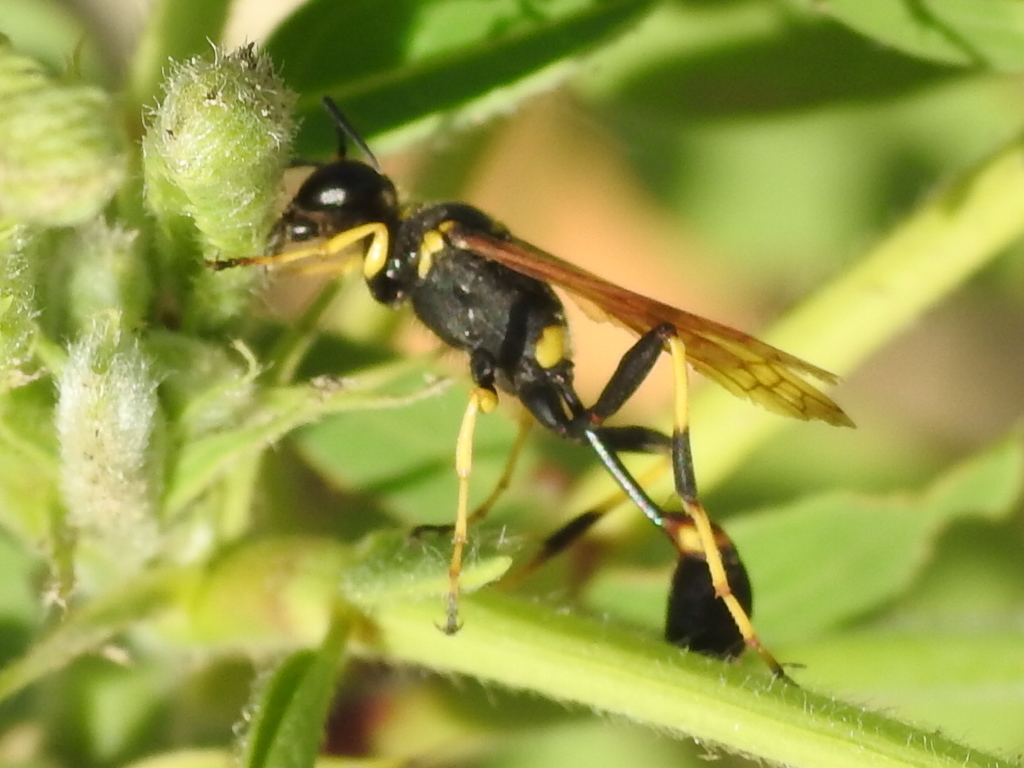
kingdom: Animalia
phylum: Arthropoda
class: Insecta
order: Hymenoptera
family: Sphecidae
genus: Sceliphron
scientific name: Sceliphron caementarium
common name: Mud dauber
